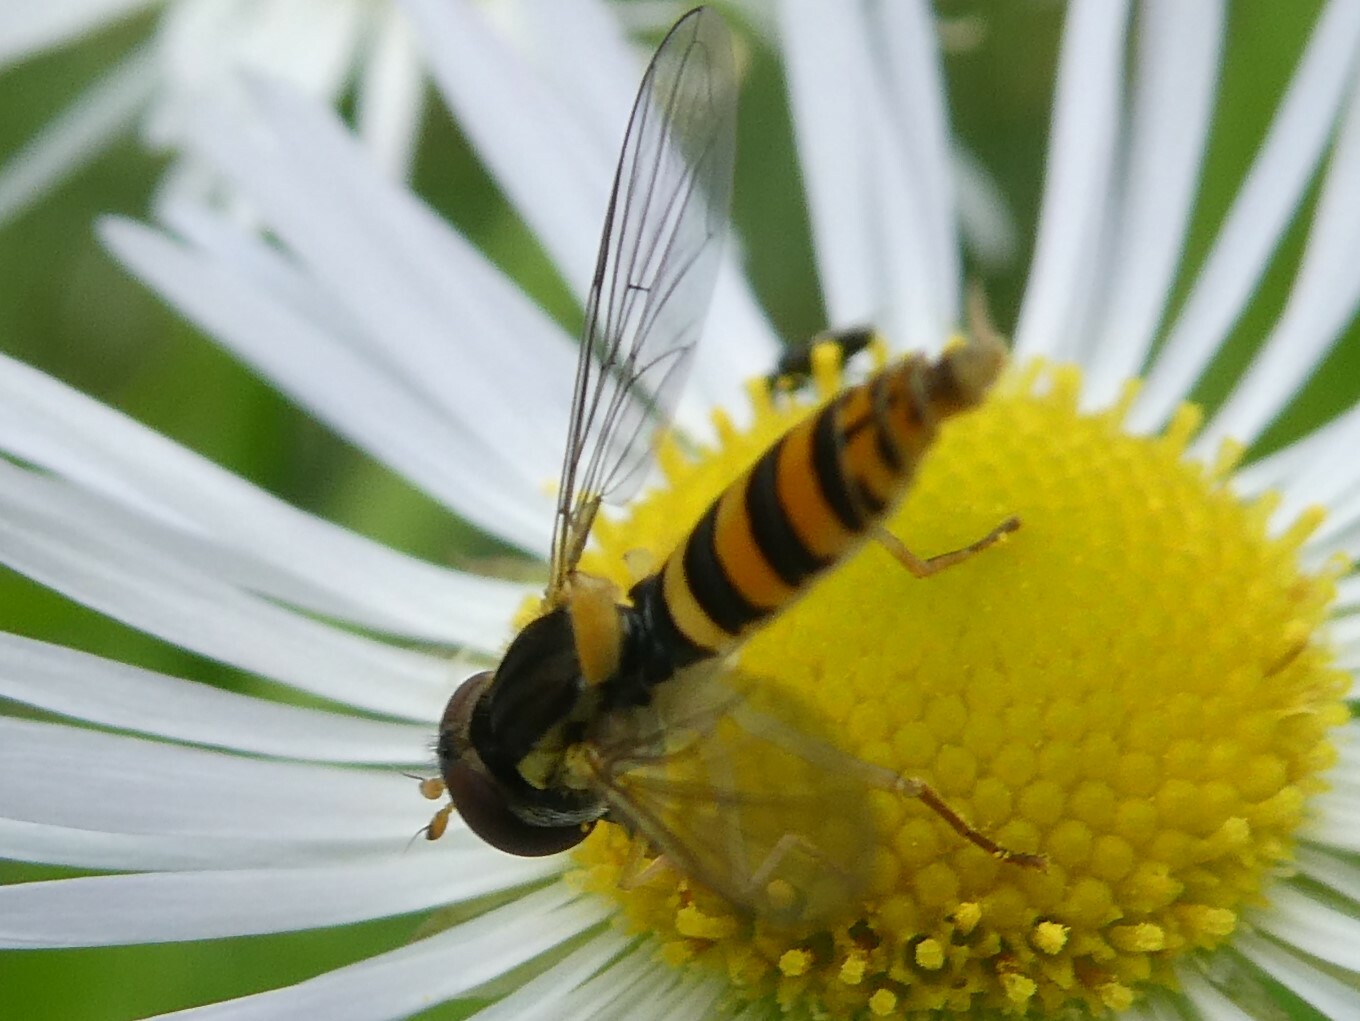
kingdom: Animalia
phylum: Arthropoda
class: Insecta
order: Diptera
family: Syrphidae
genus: Sphaerophoria
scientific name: Sphaerophoria
